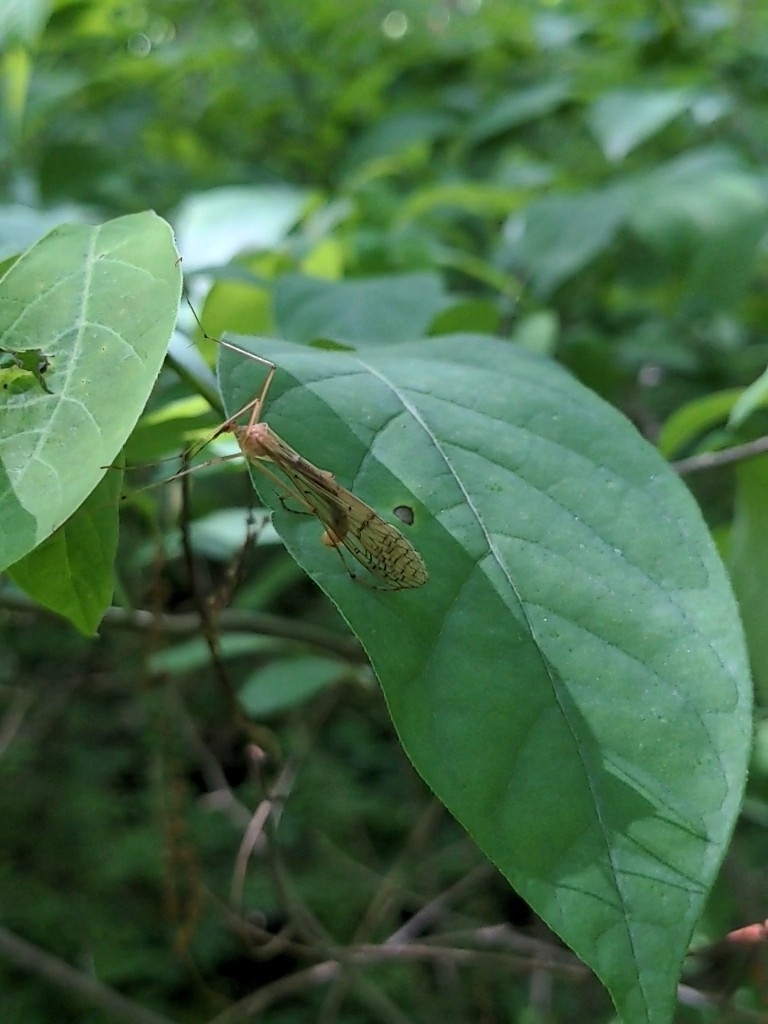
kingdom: Animalia
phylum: Arthropoda
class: Insecta
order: Mecoptera
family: Bittacidae
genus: Bittacus
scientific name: Bittacus strigosus
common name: Thin hangingfly
